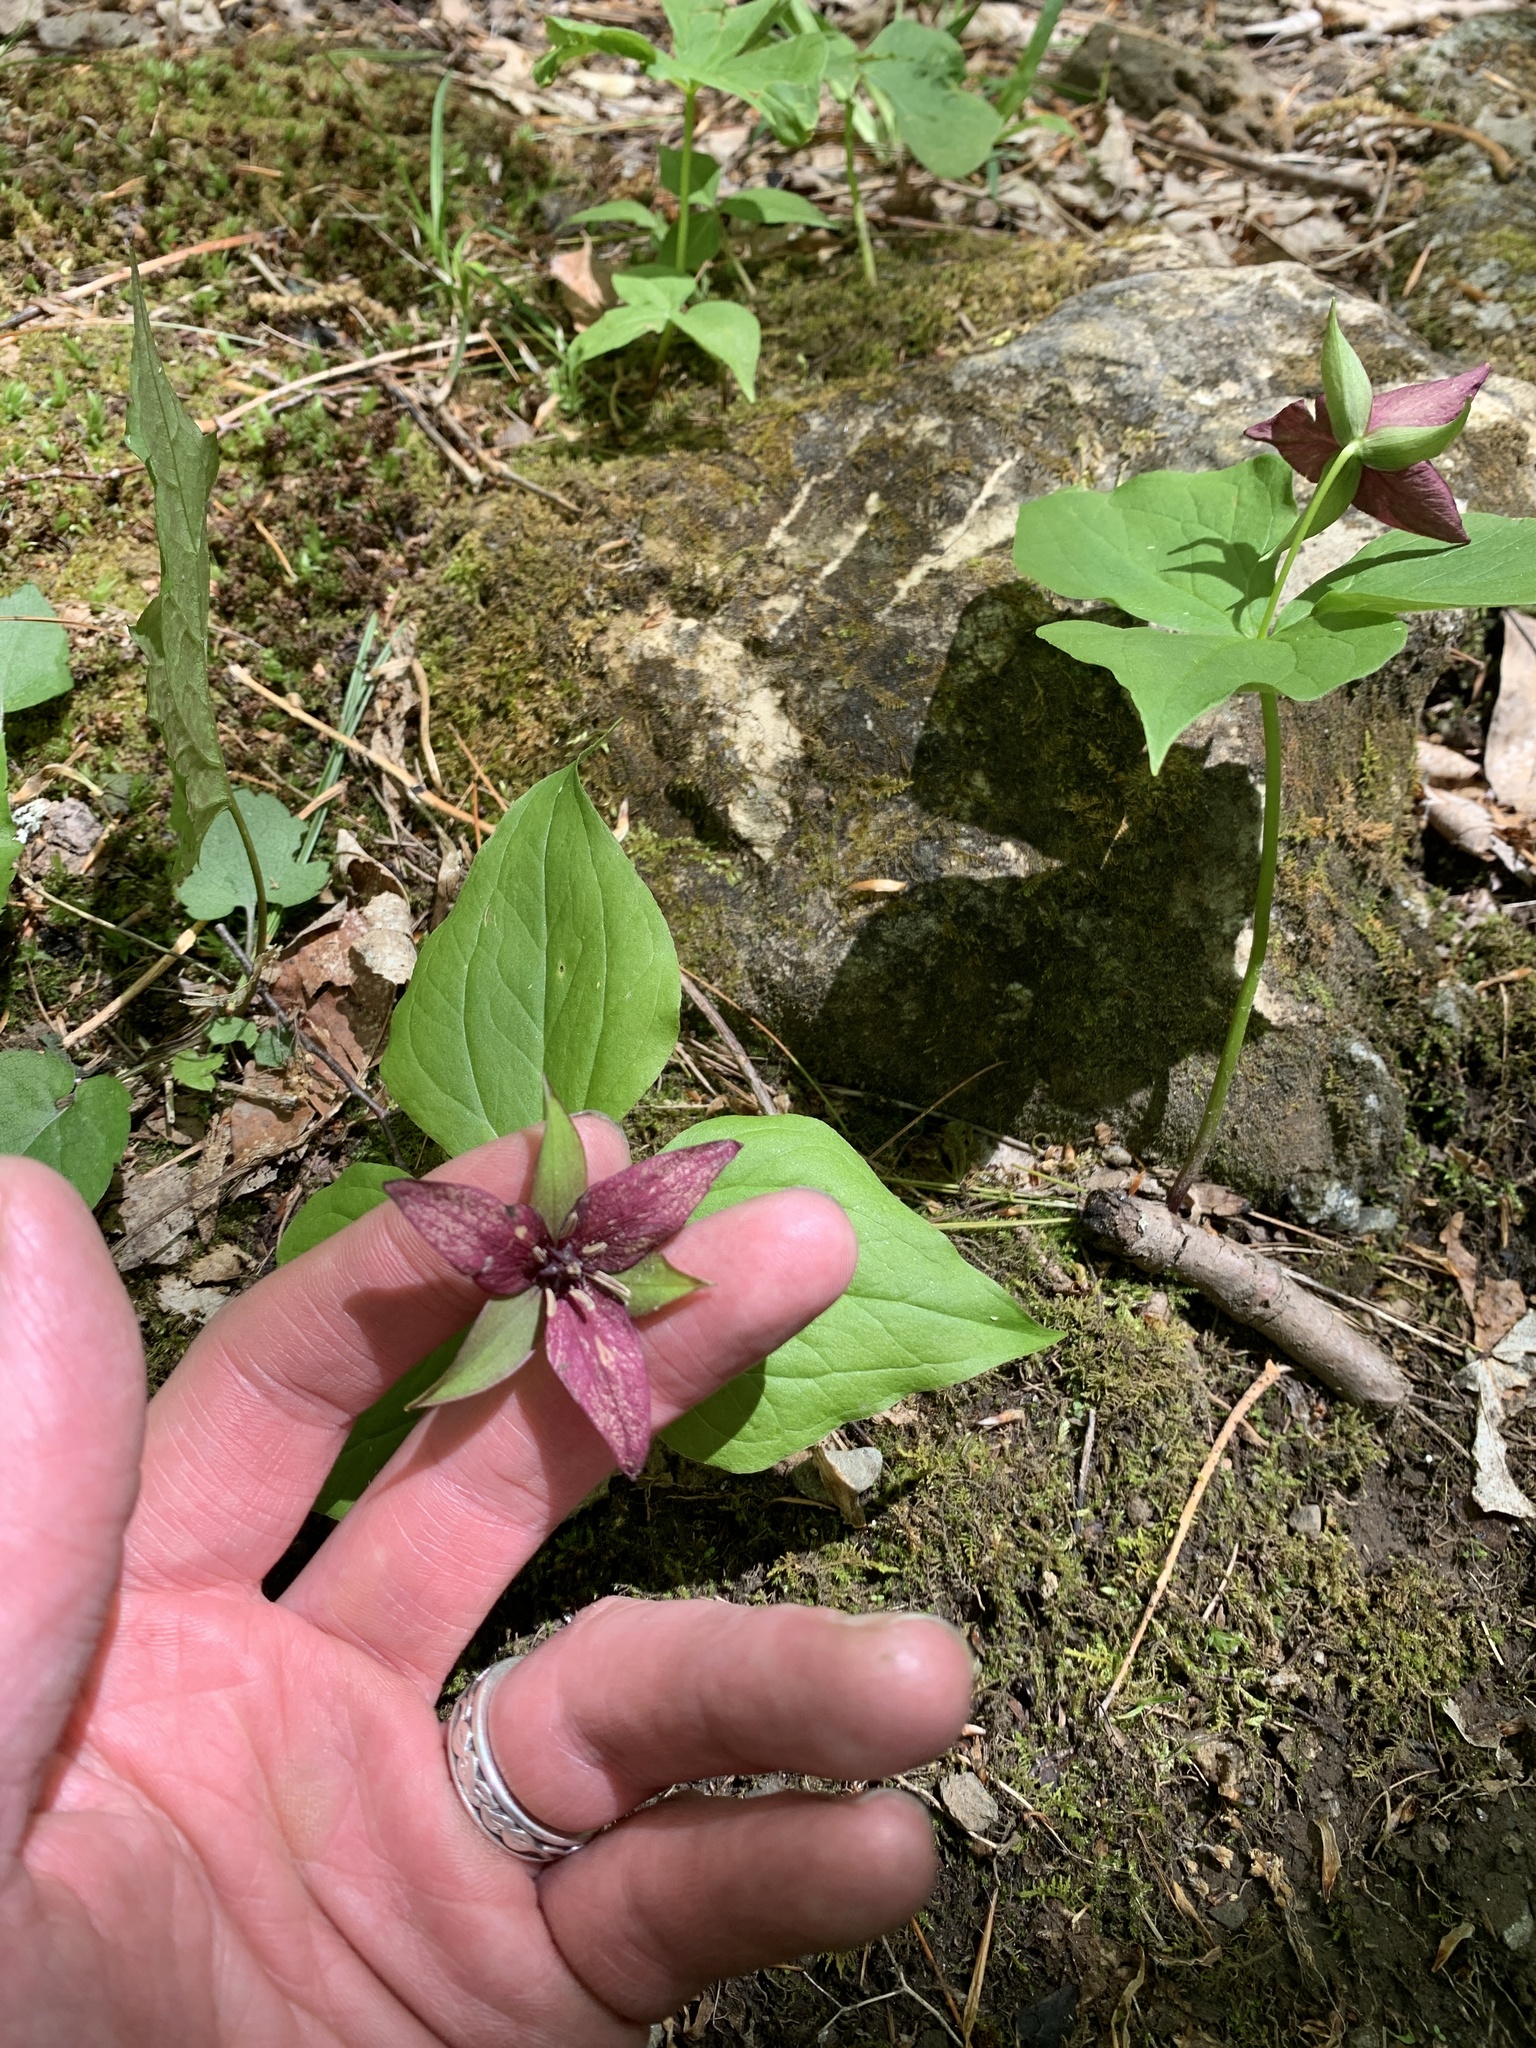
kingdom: Plantae
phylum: Tracheophyta
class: Liliopsida
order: Liliales
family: Melanthiaceae
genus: Trillium
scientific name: Trillium erectum
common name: Purple trillium
